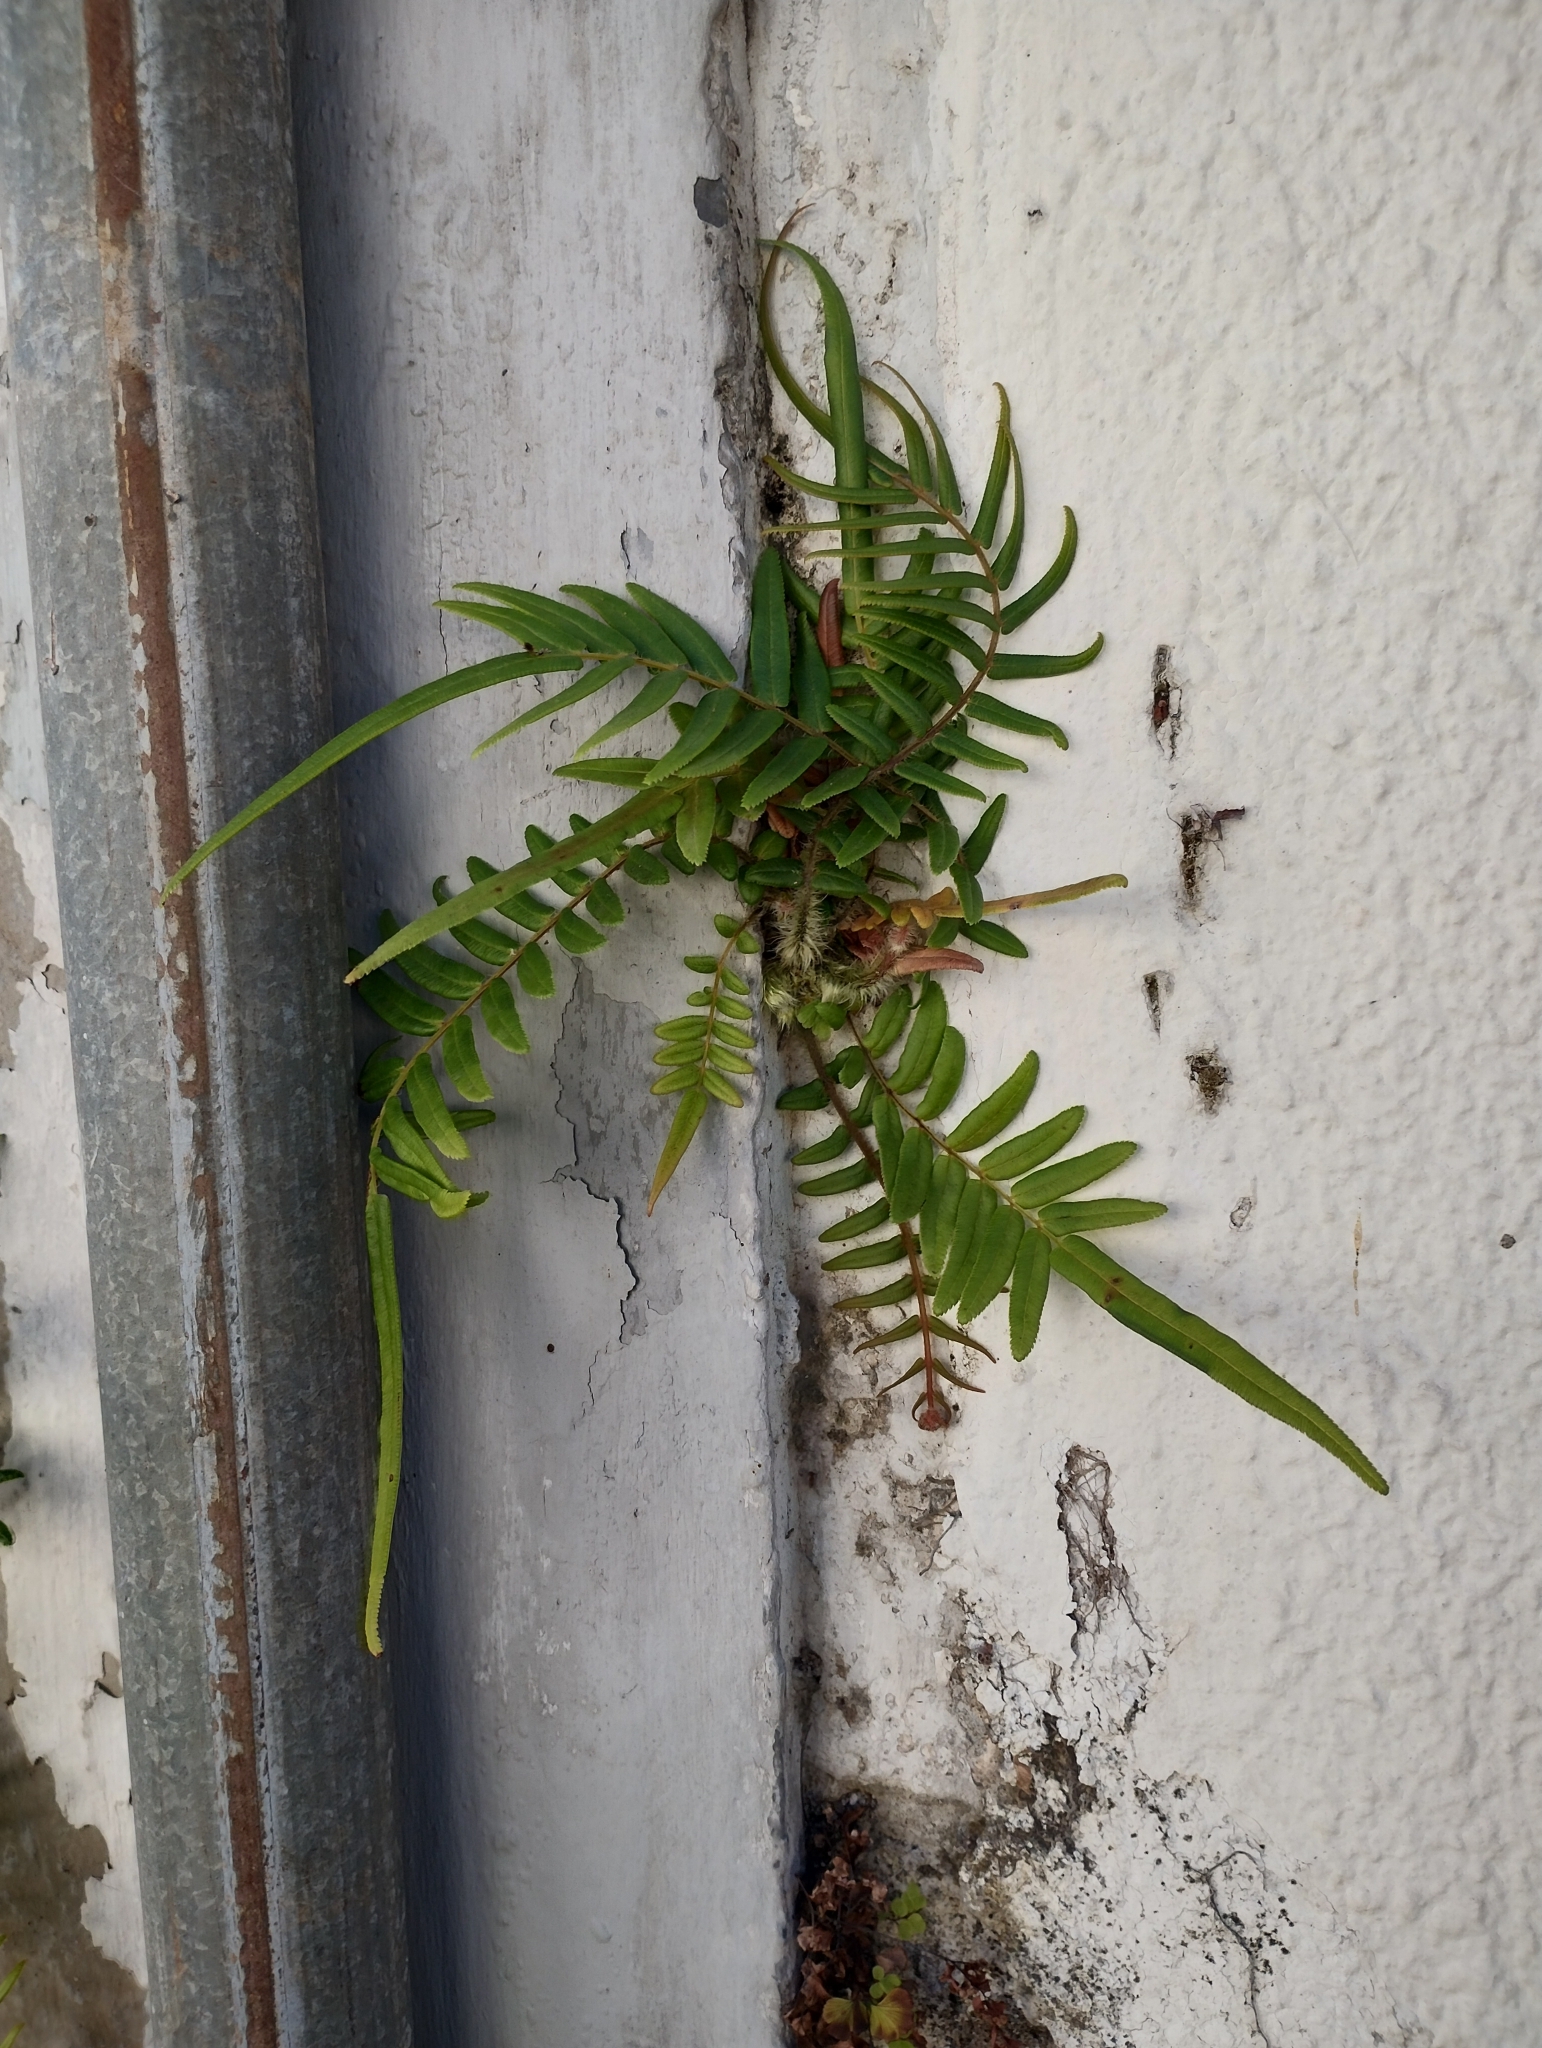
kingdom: Plantae
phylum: Tracheophyta
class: Polypodiopsida
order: Polypodiales
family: Pteridaceae
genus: Pteris
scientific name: Pteris vittata
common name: Ladder brake
